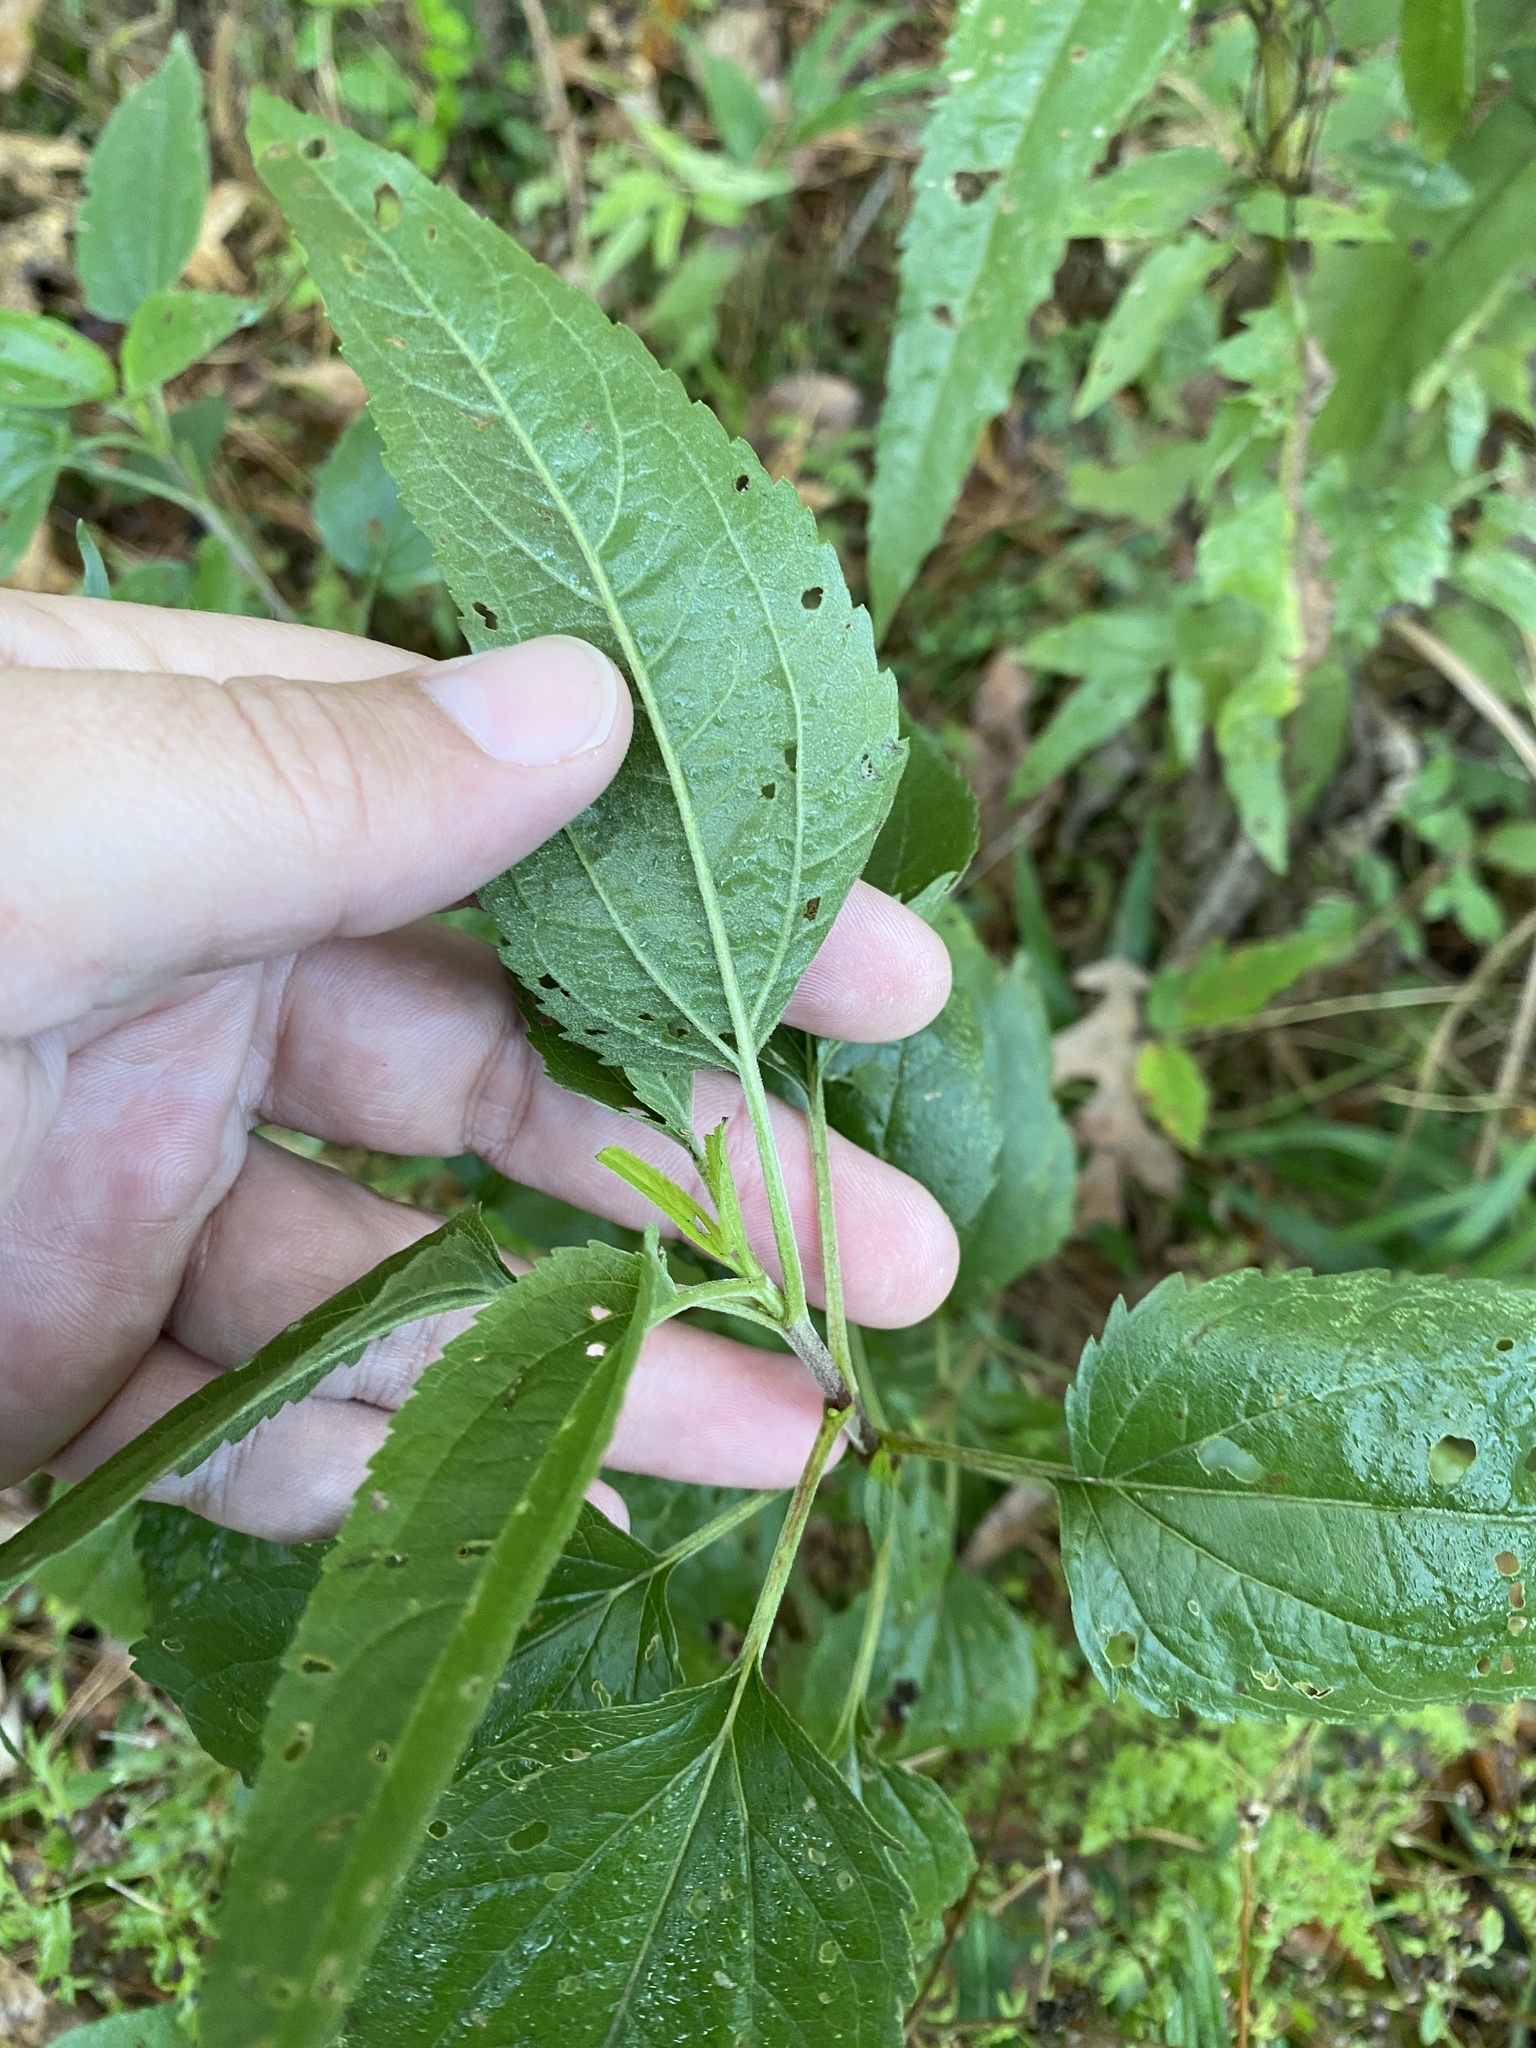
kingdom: Plantae
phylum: Tracheophyta
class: Magnoliopsida
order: Asterales
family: Asteraceae
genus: Eupatorium
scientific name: Eupatorium serotinum
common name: Late boneset
